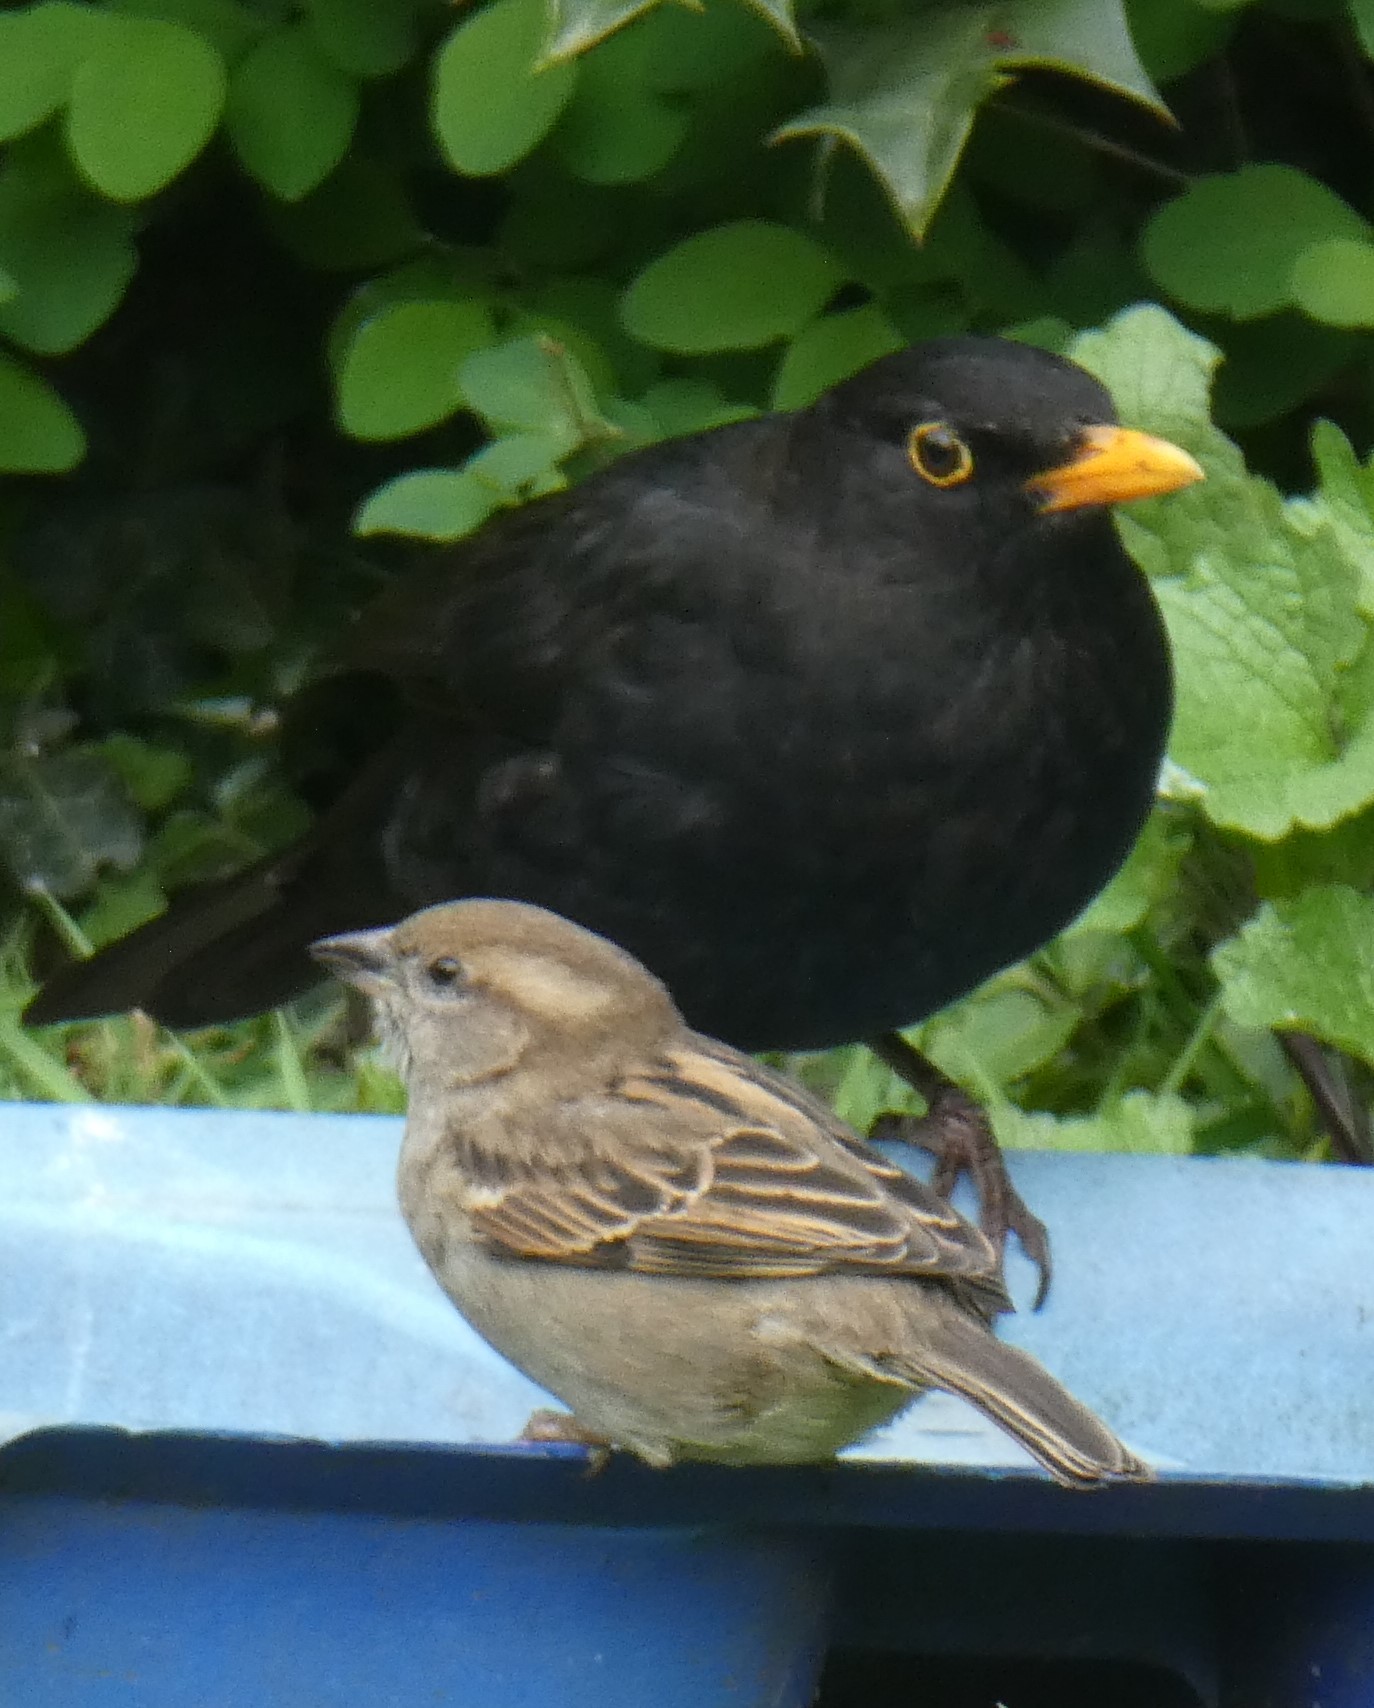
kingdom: Animalia
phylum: Chordata
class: Aves
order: Passeriformes
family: Passeridae
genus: Passer
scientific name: Passer domesticus
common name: House sparrow
